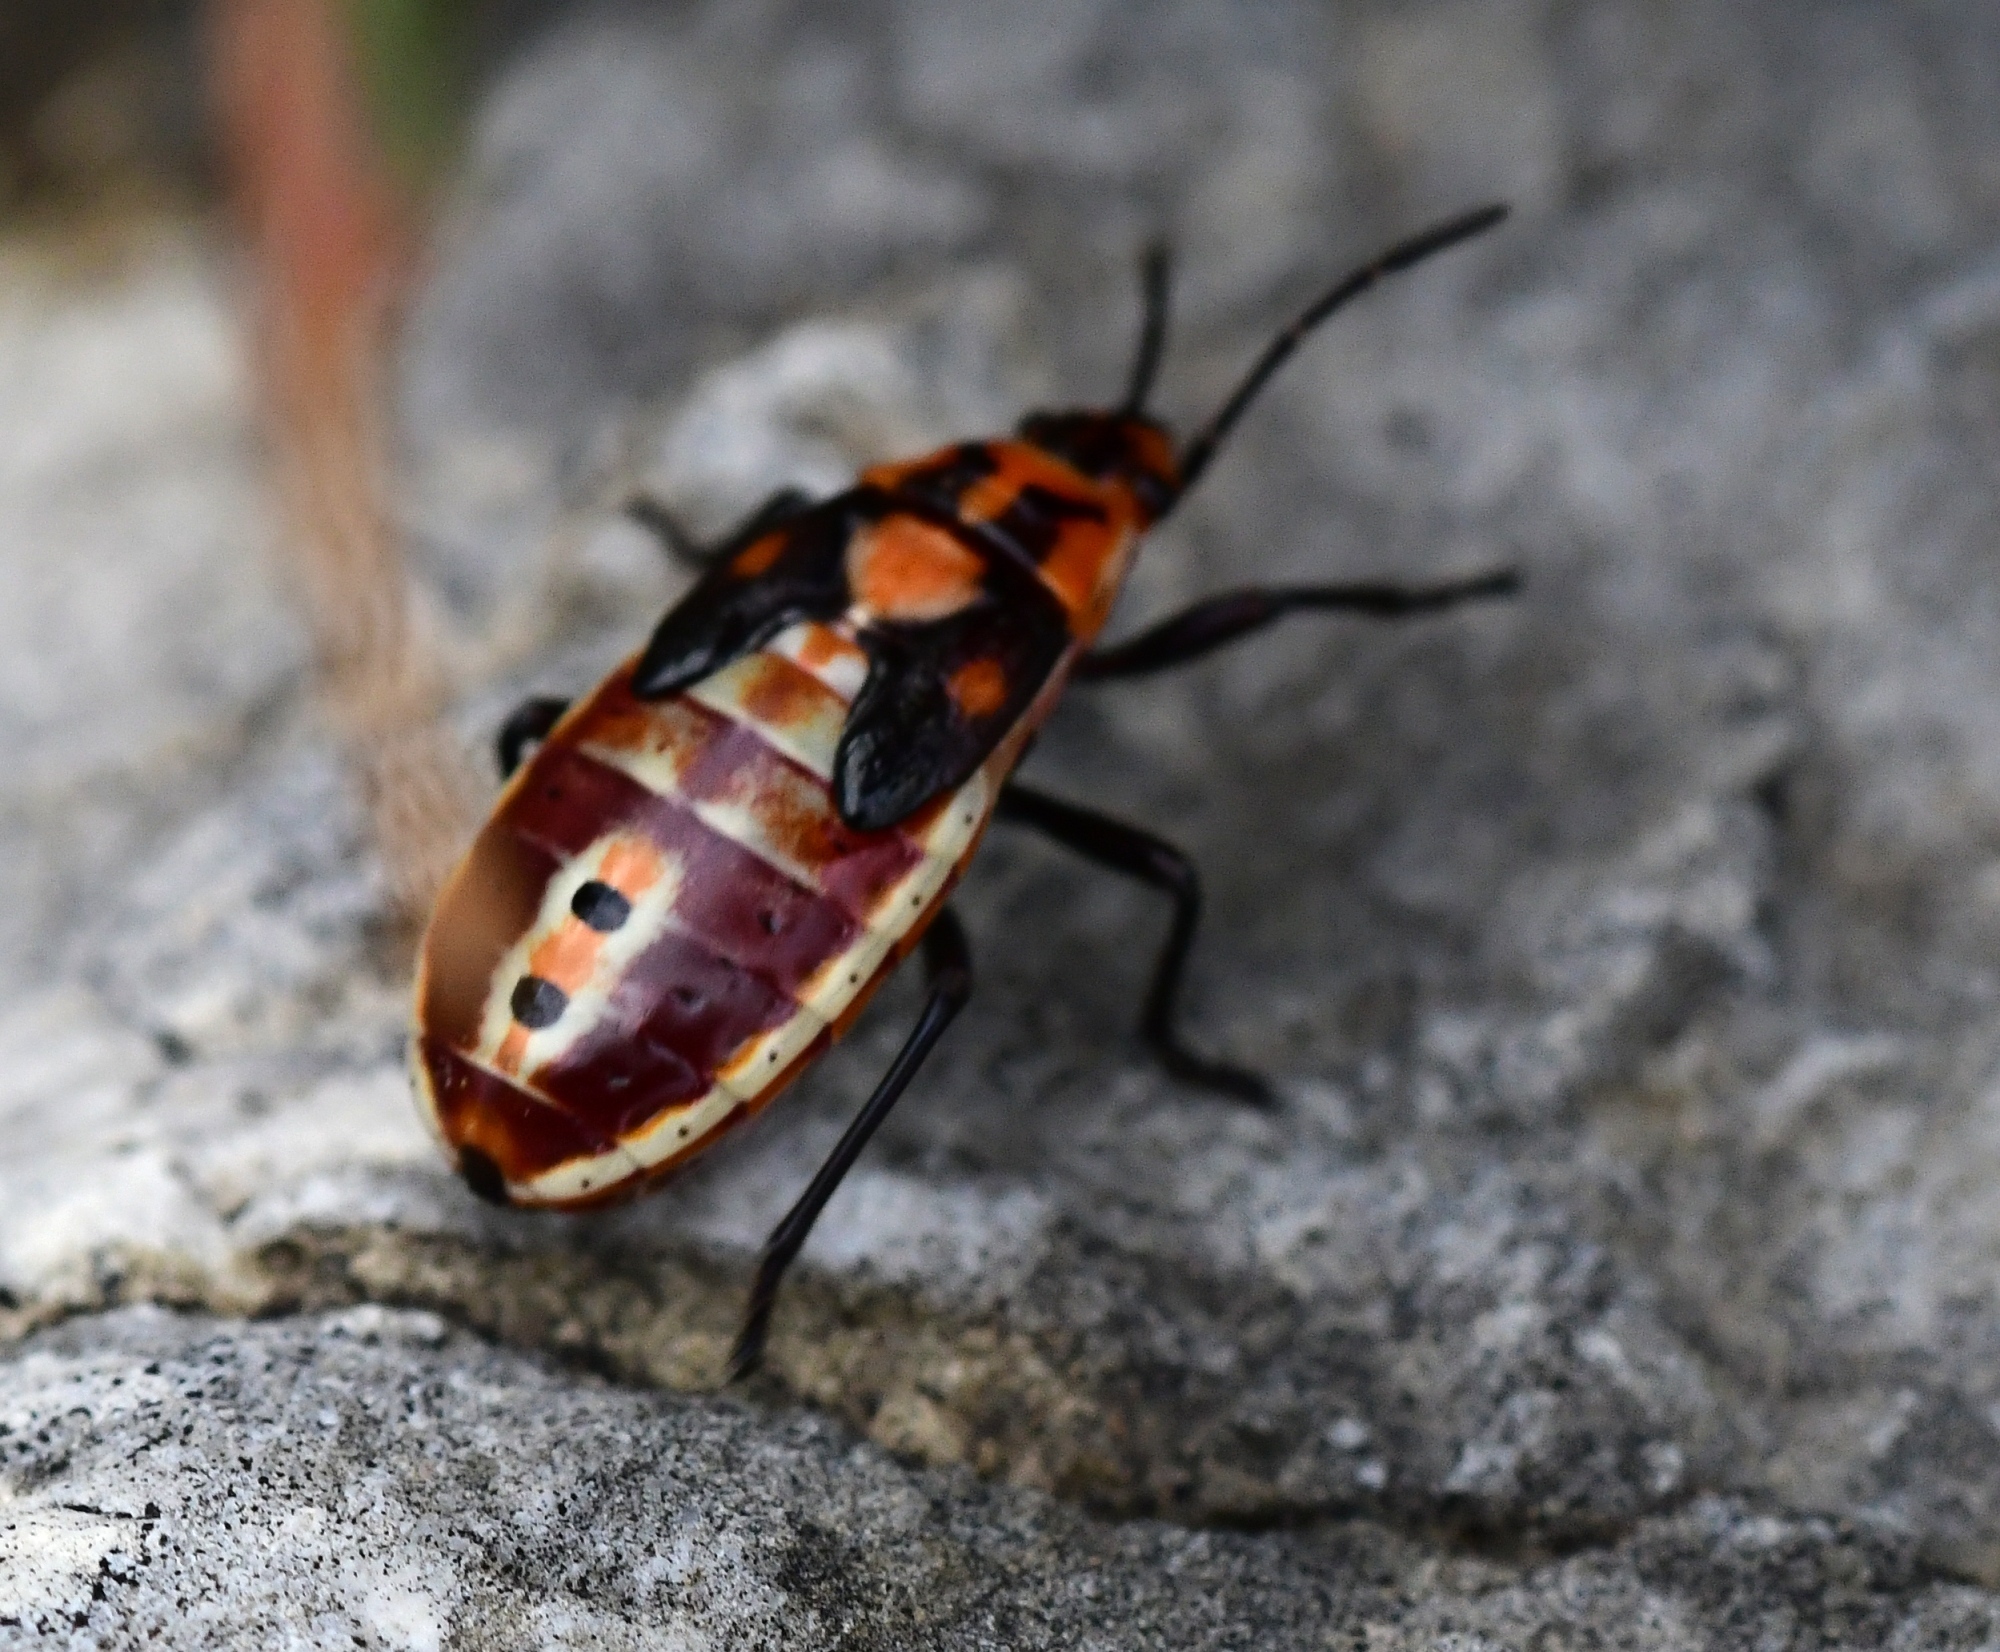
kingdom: Animalia
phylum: Arthropoda
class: Insecta
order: Hemiptera
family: Lygaeidae
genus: Spilostethus
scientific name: Spilostethus pandurus
